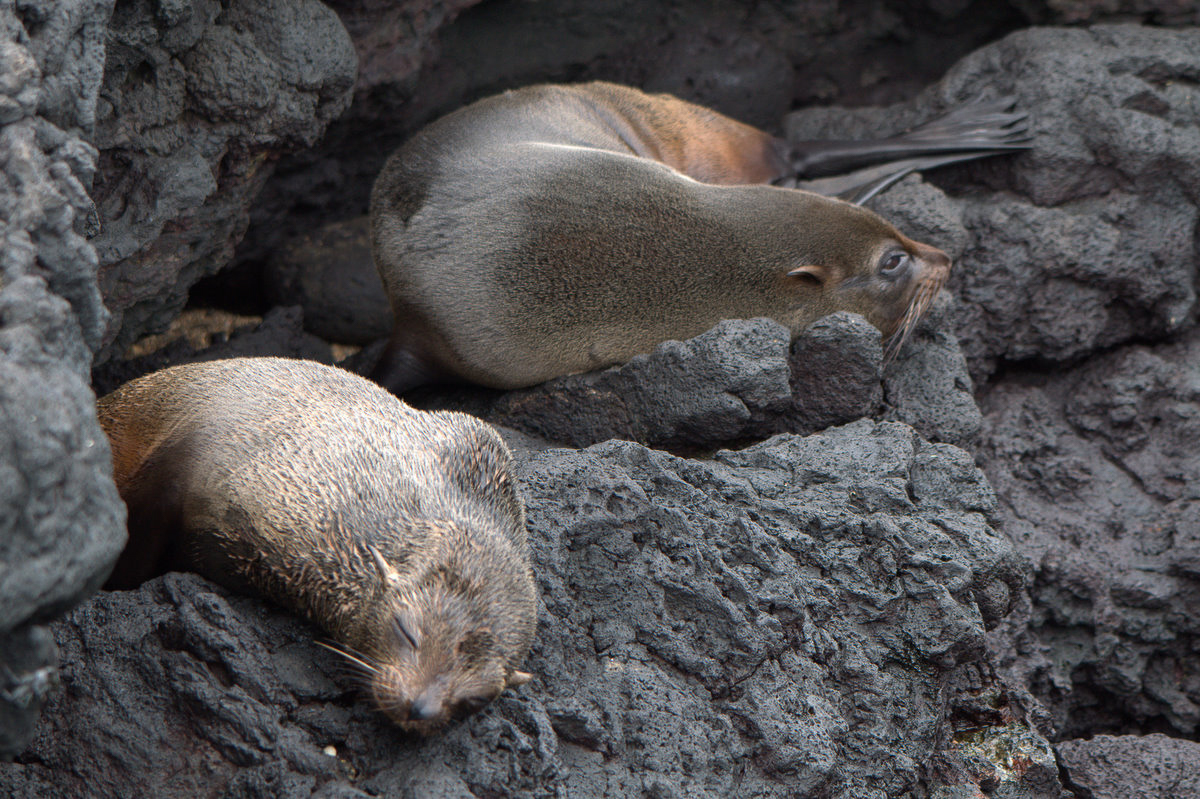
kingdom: Animalia
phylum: Chordata
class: Mammalia
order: Carnivora
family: Otariidae
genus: Arctocephalus
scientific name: Arctocephalus galapagoensis
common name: Galapagos fur seal
